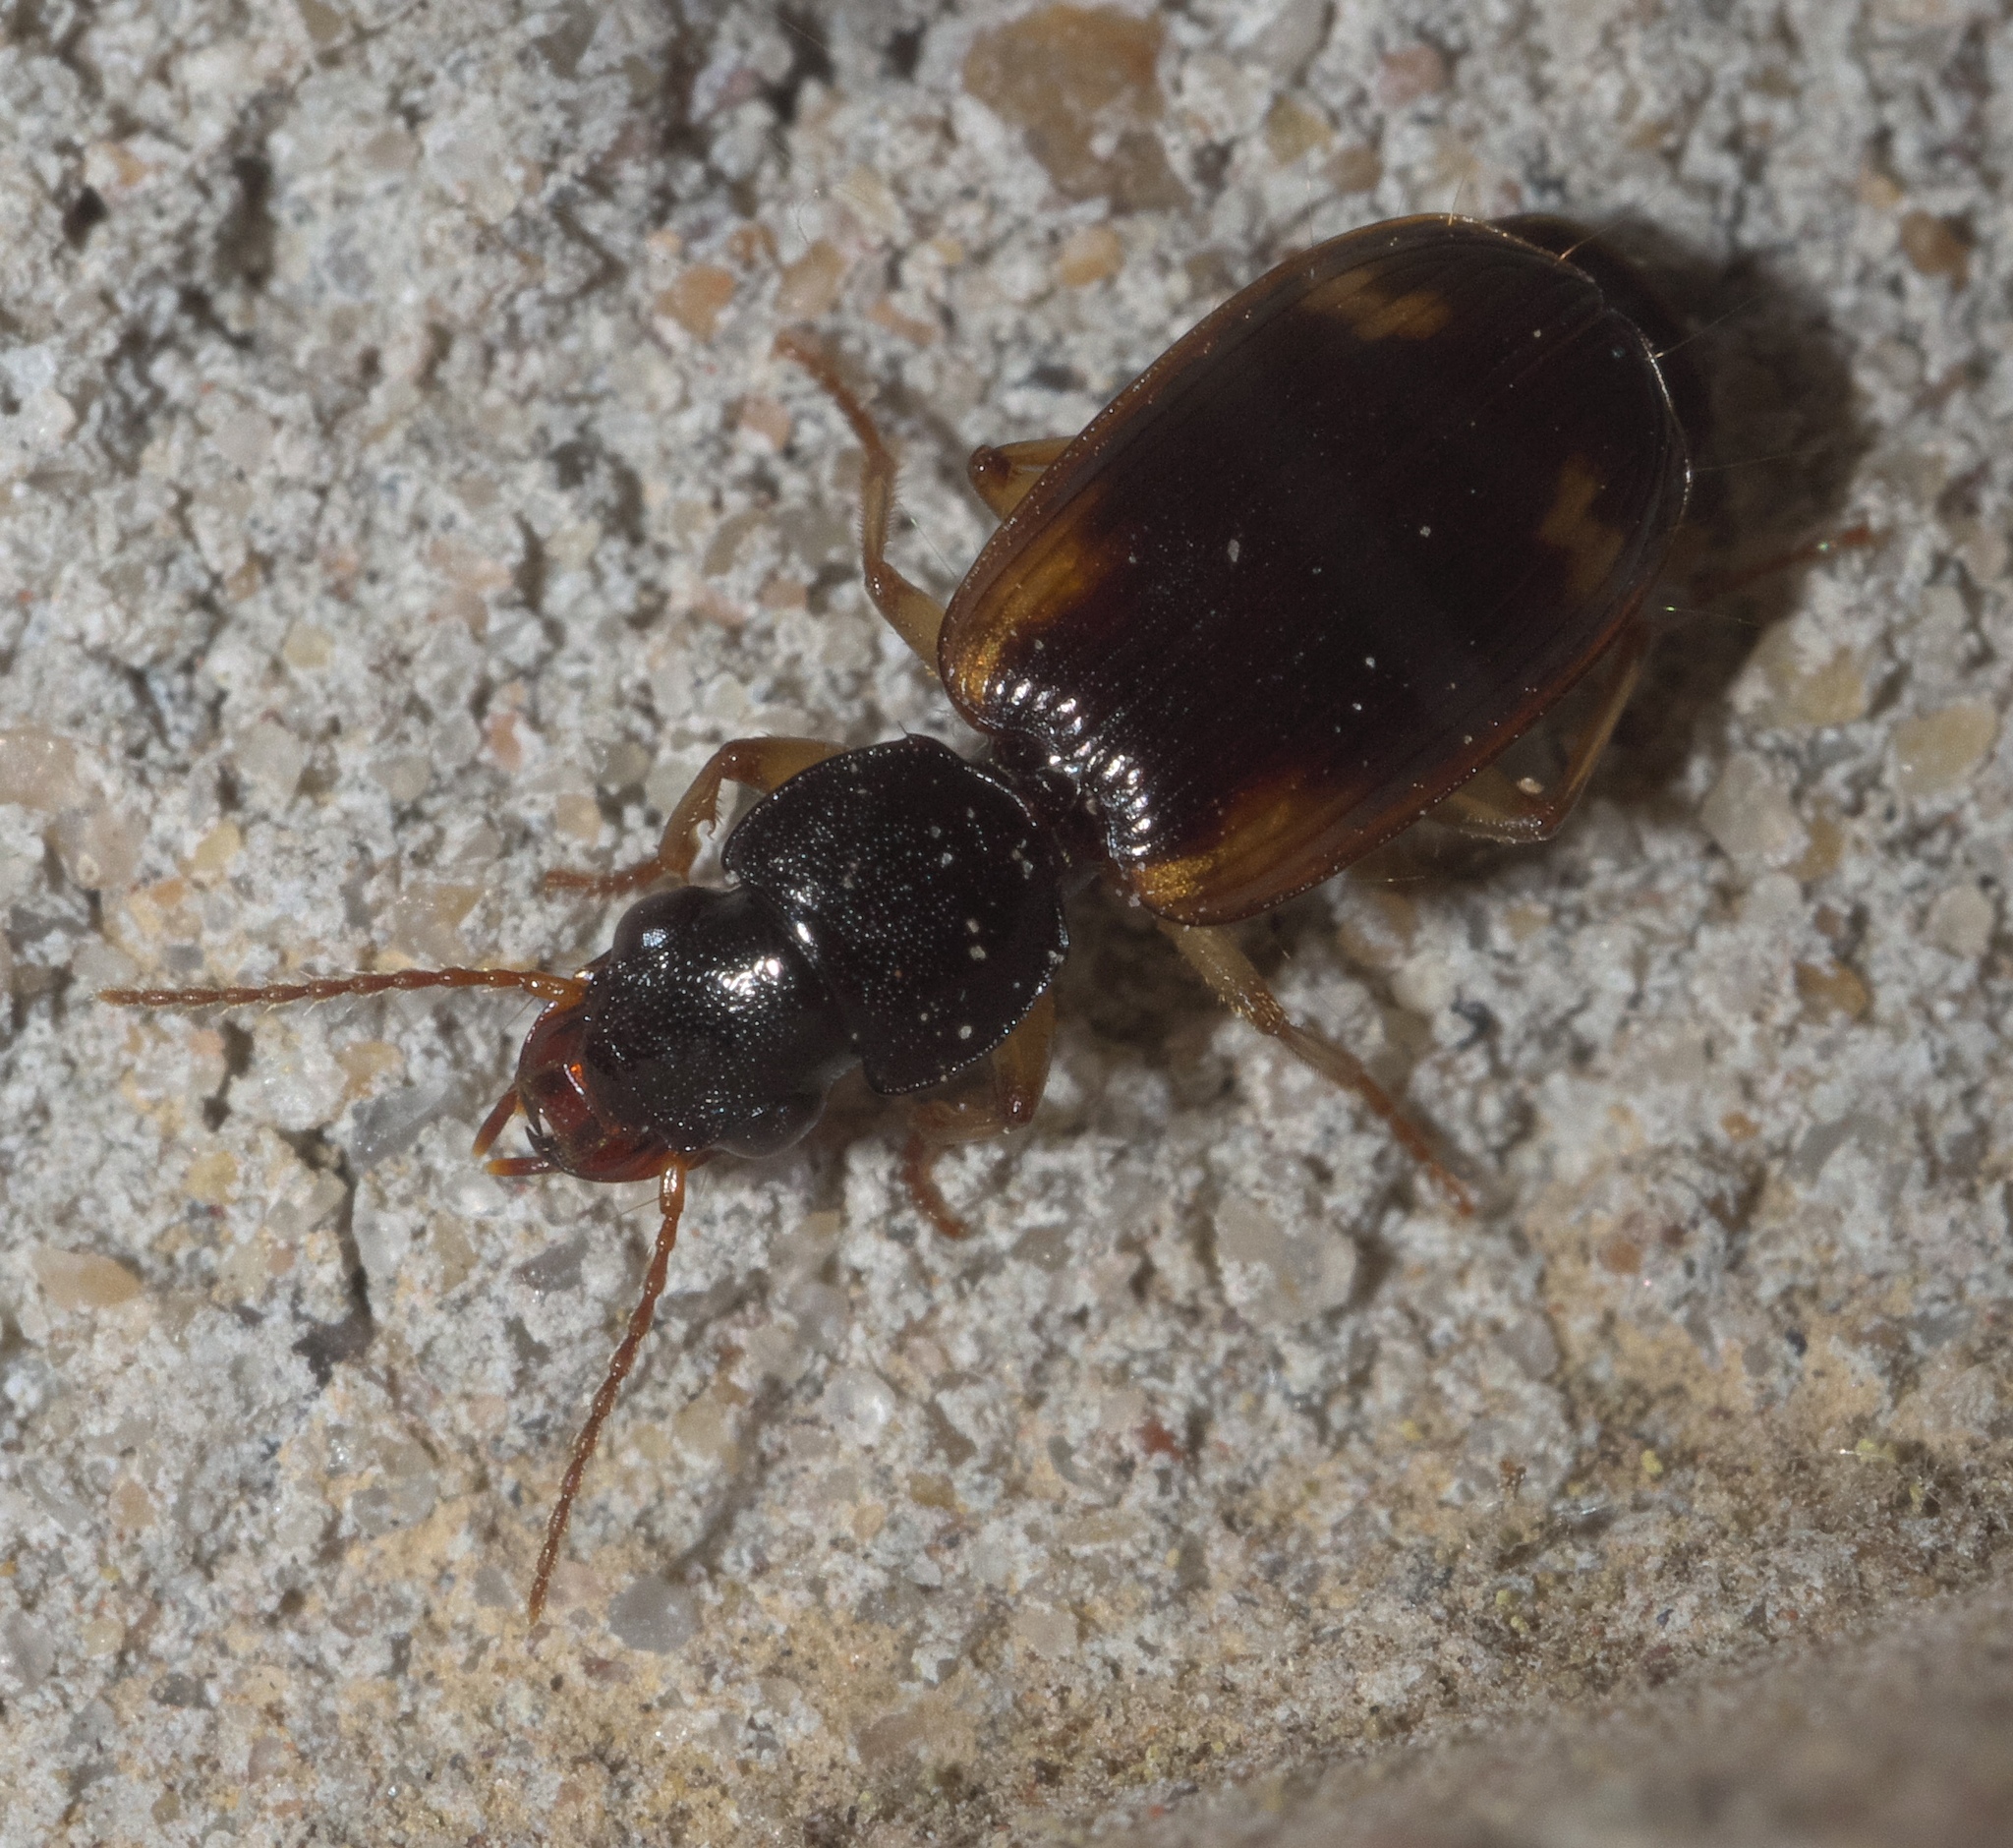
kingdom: Animalia
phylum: Arthropoda
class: Insecta
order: Coleoptera
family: Carabidae
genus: Apenes
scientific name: Apenes sinuata
